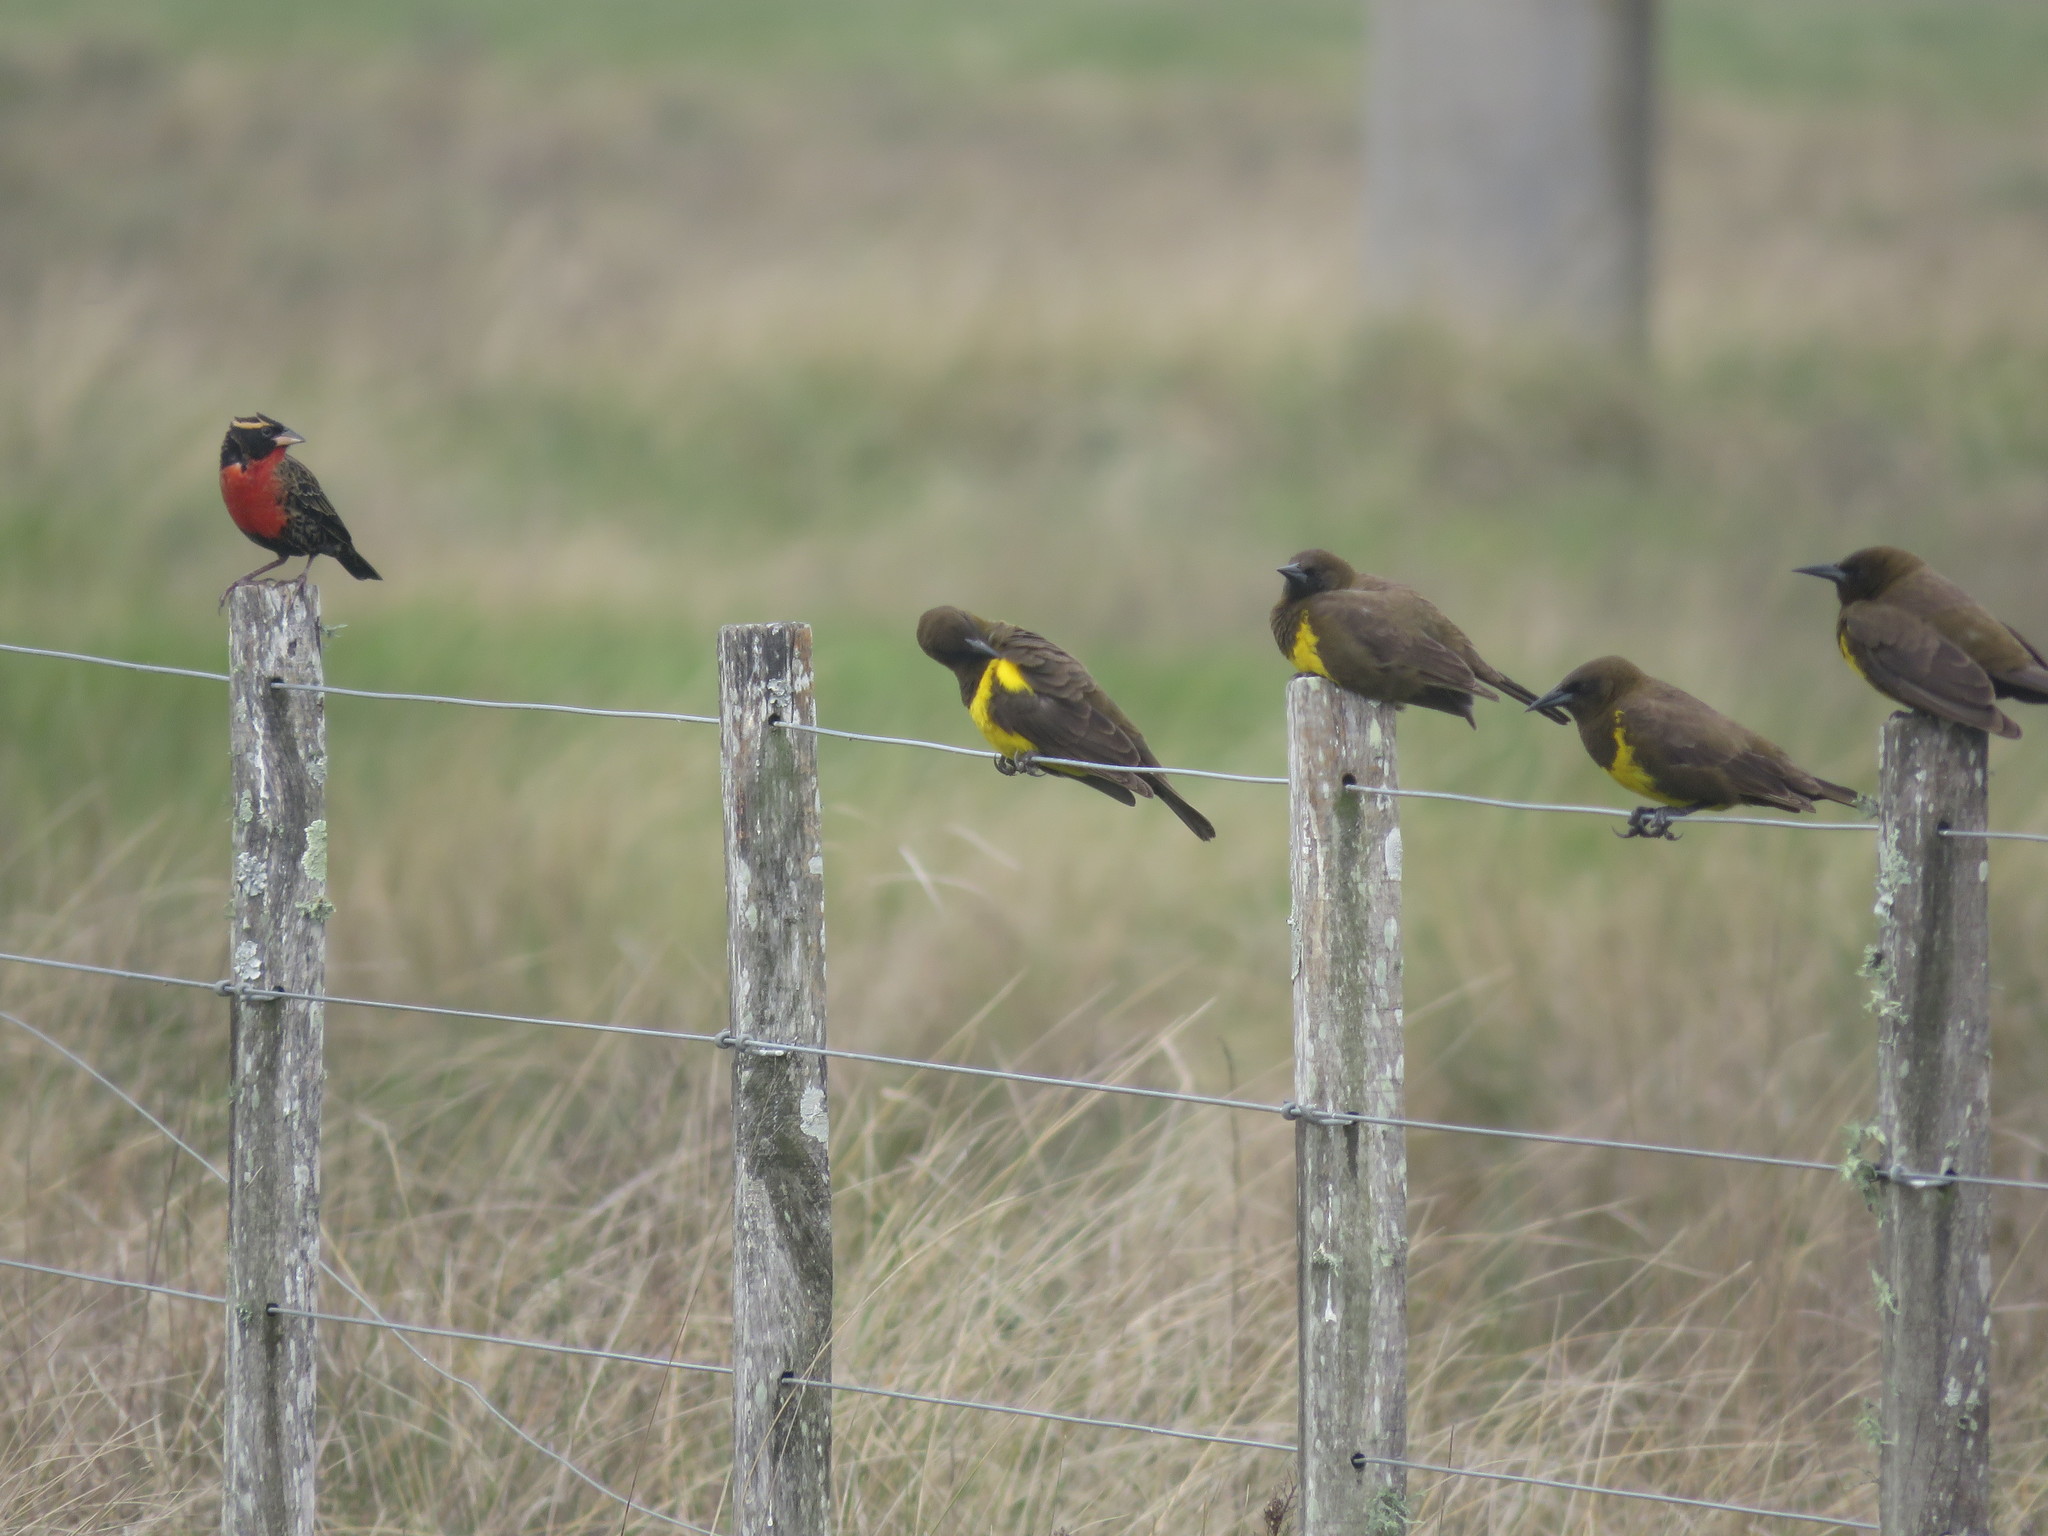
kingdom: Animalia
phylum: Chordata
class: Aves
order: Passeriformes
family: Icteridae
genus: Sturnella
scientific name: Sturnella superciliaris
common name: White-browed blackbird
